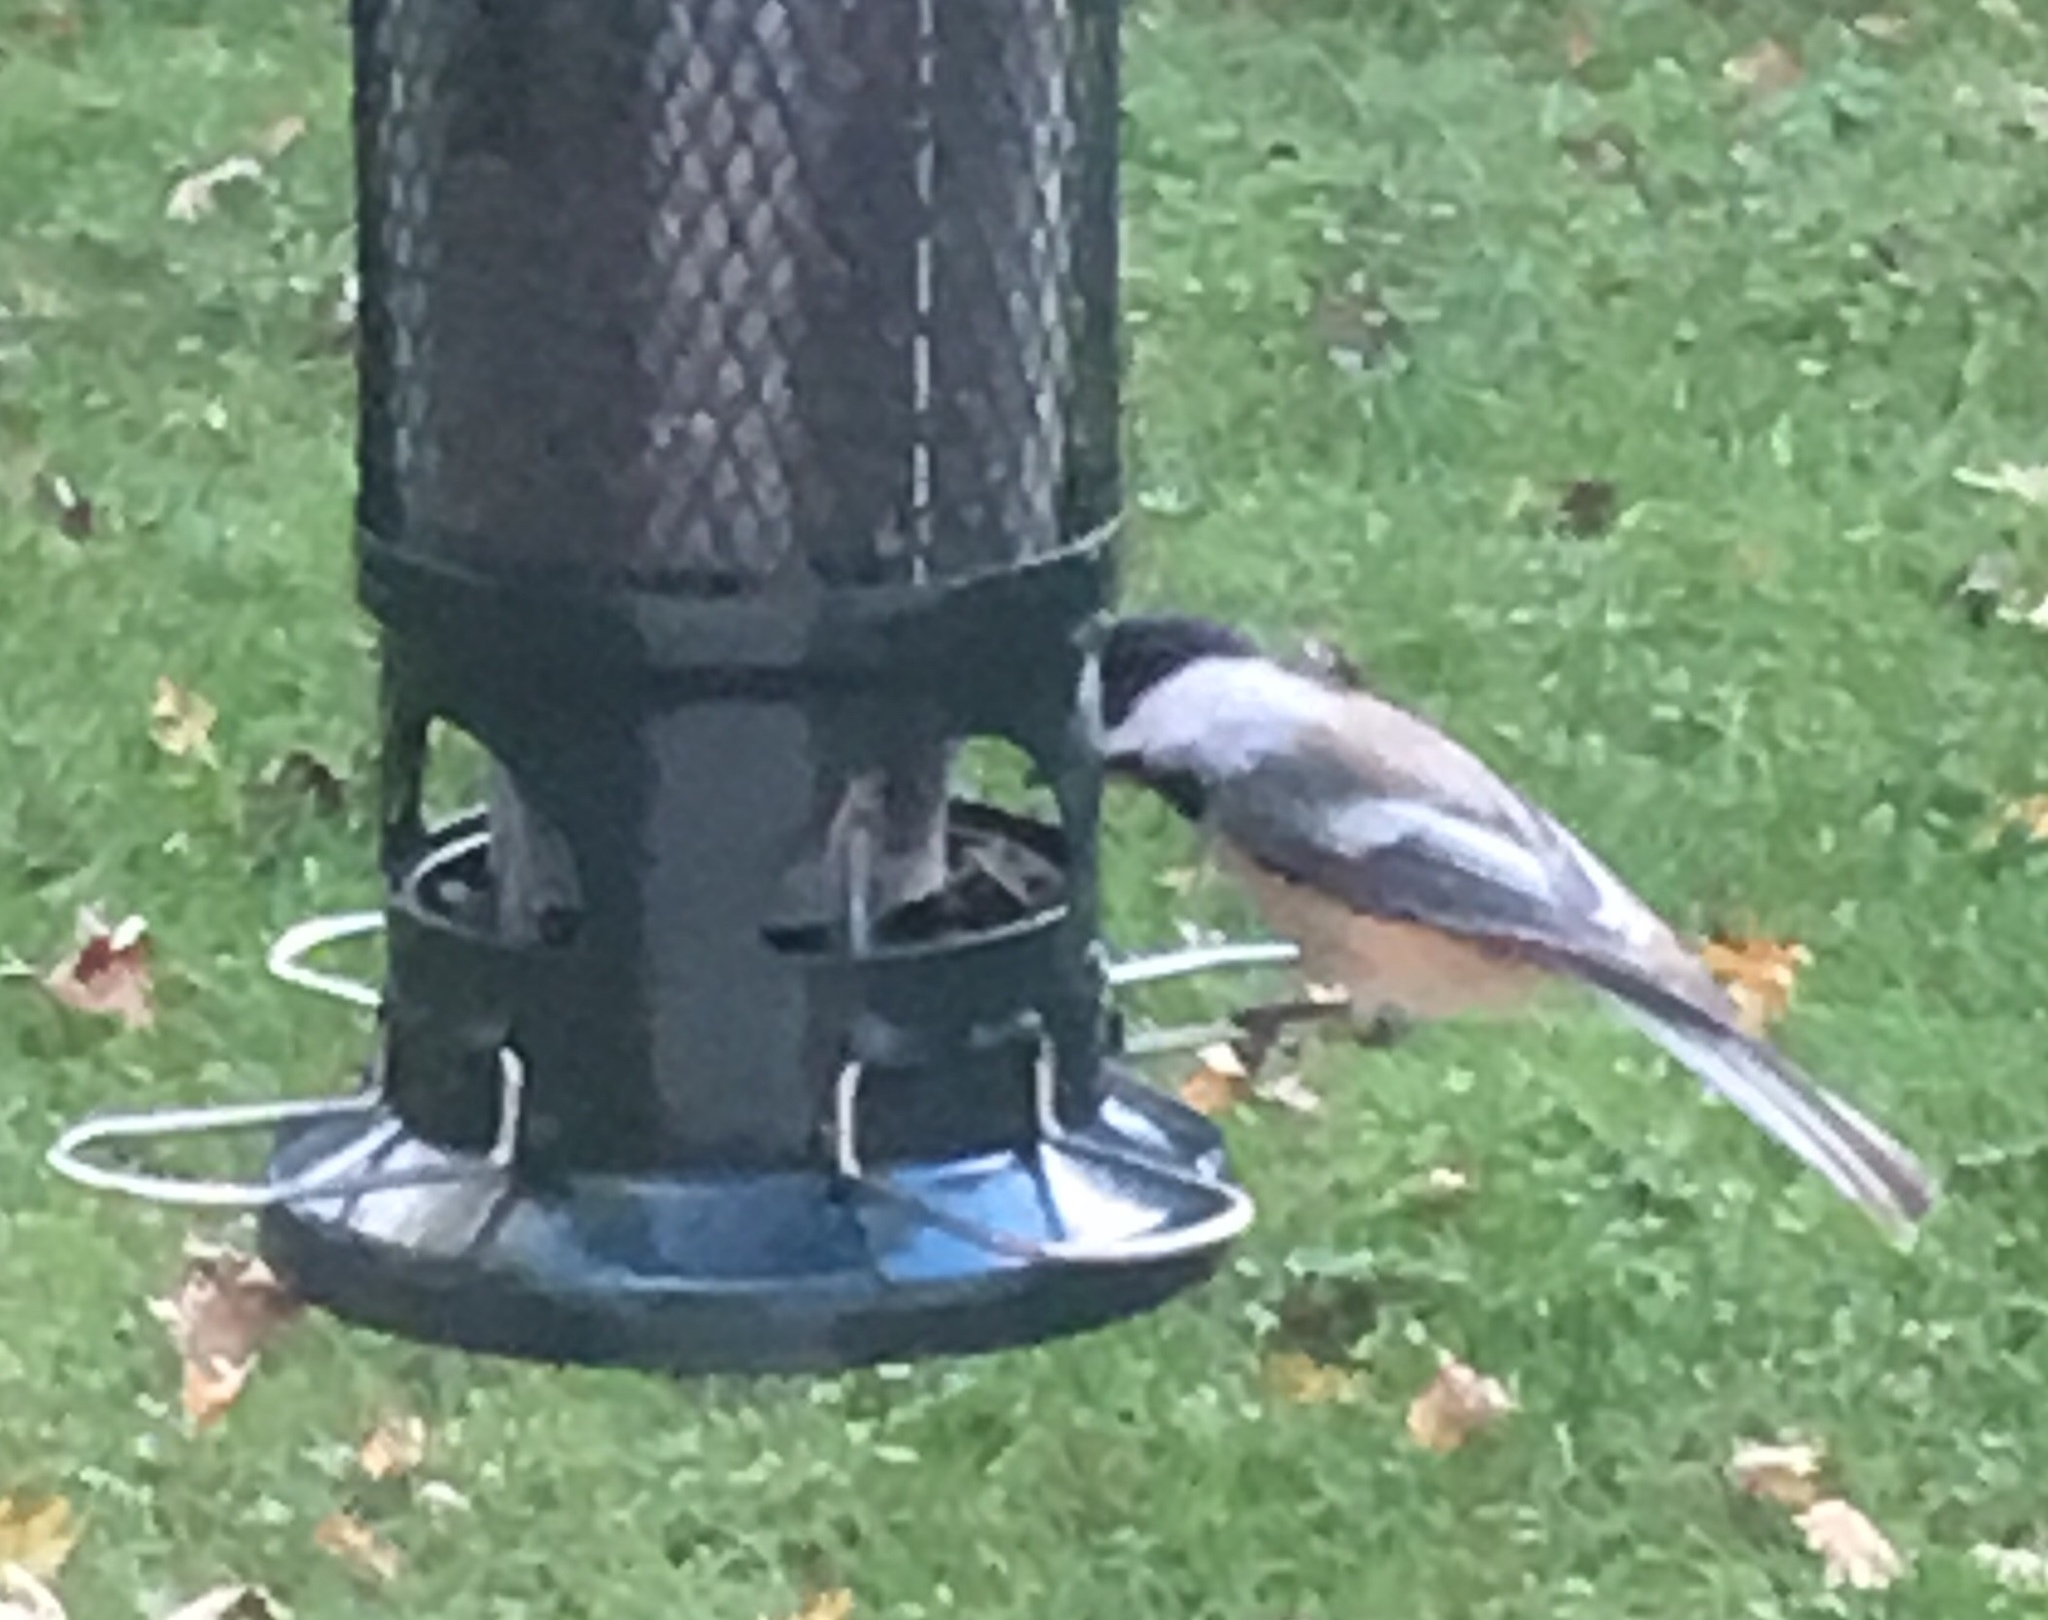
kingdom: Animalia
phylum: Chordata
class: Aves
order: Passeriformes
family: Paridae
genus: Poecile
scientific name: Poecile atricapillus
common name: Black-capped chickadee
